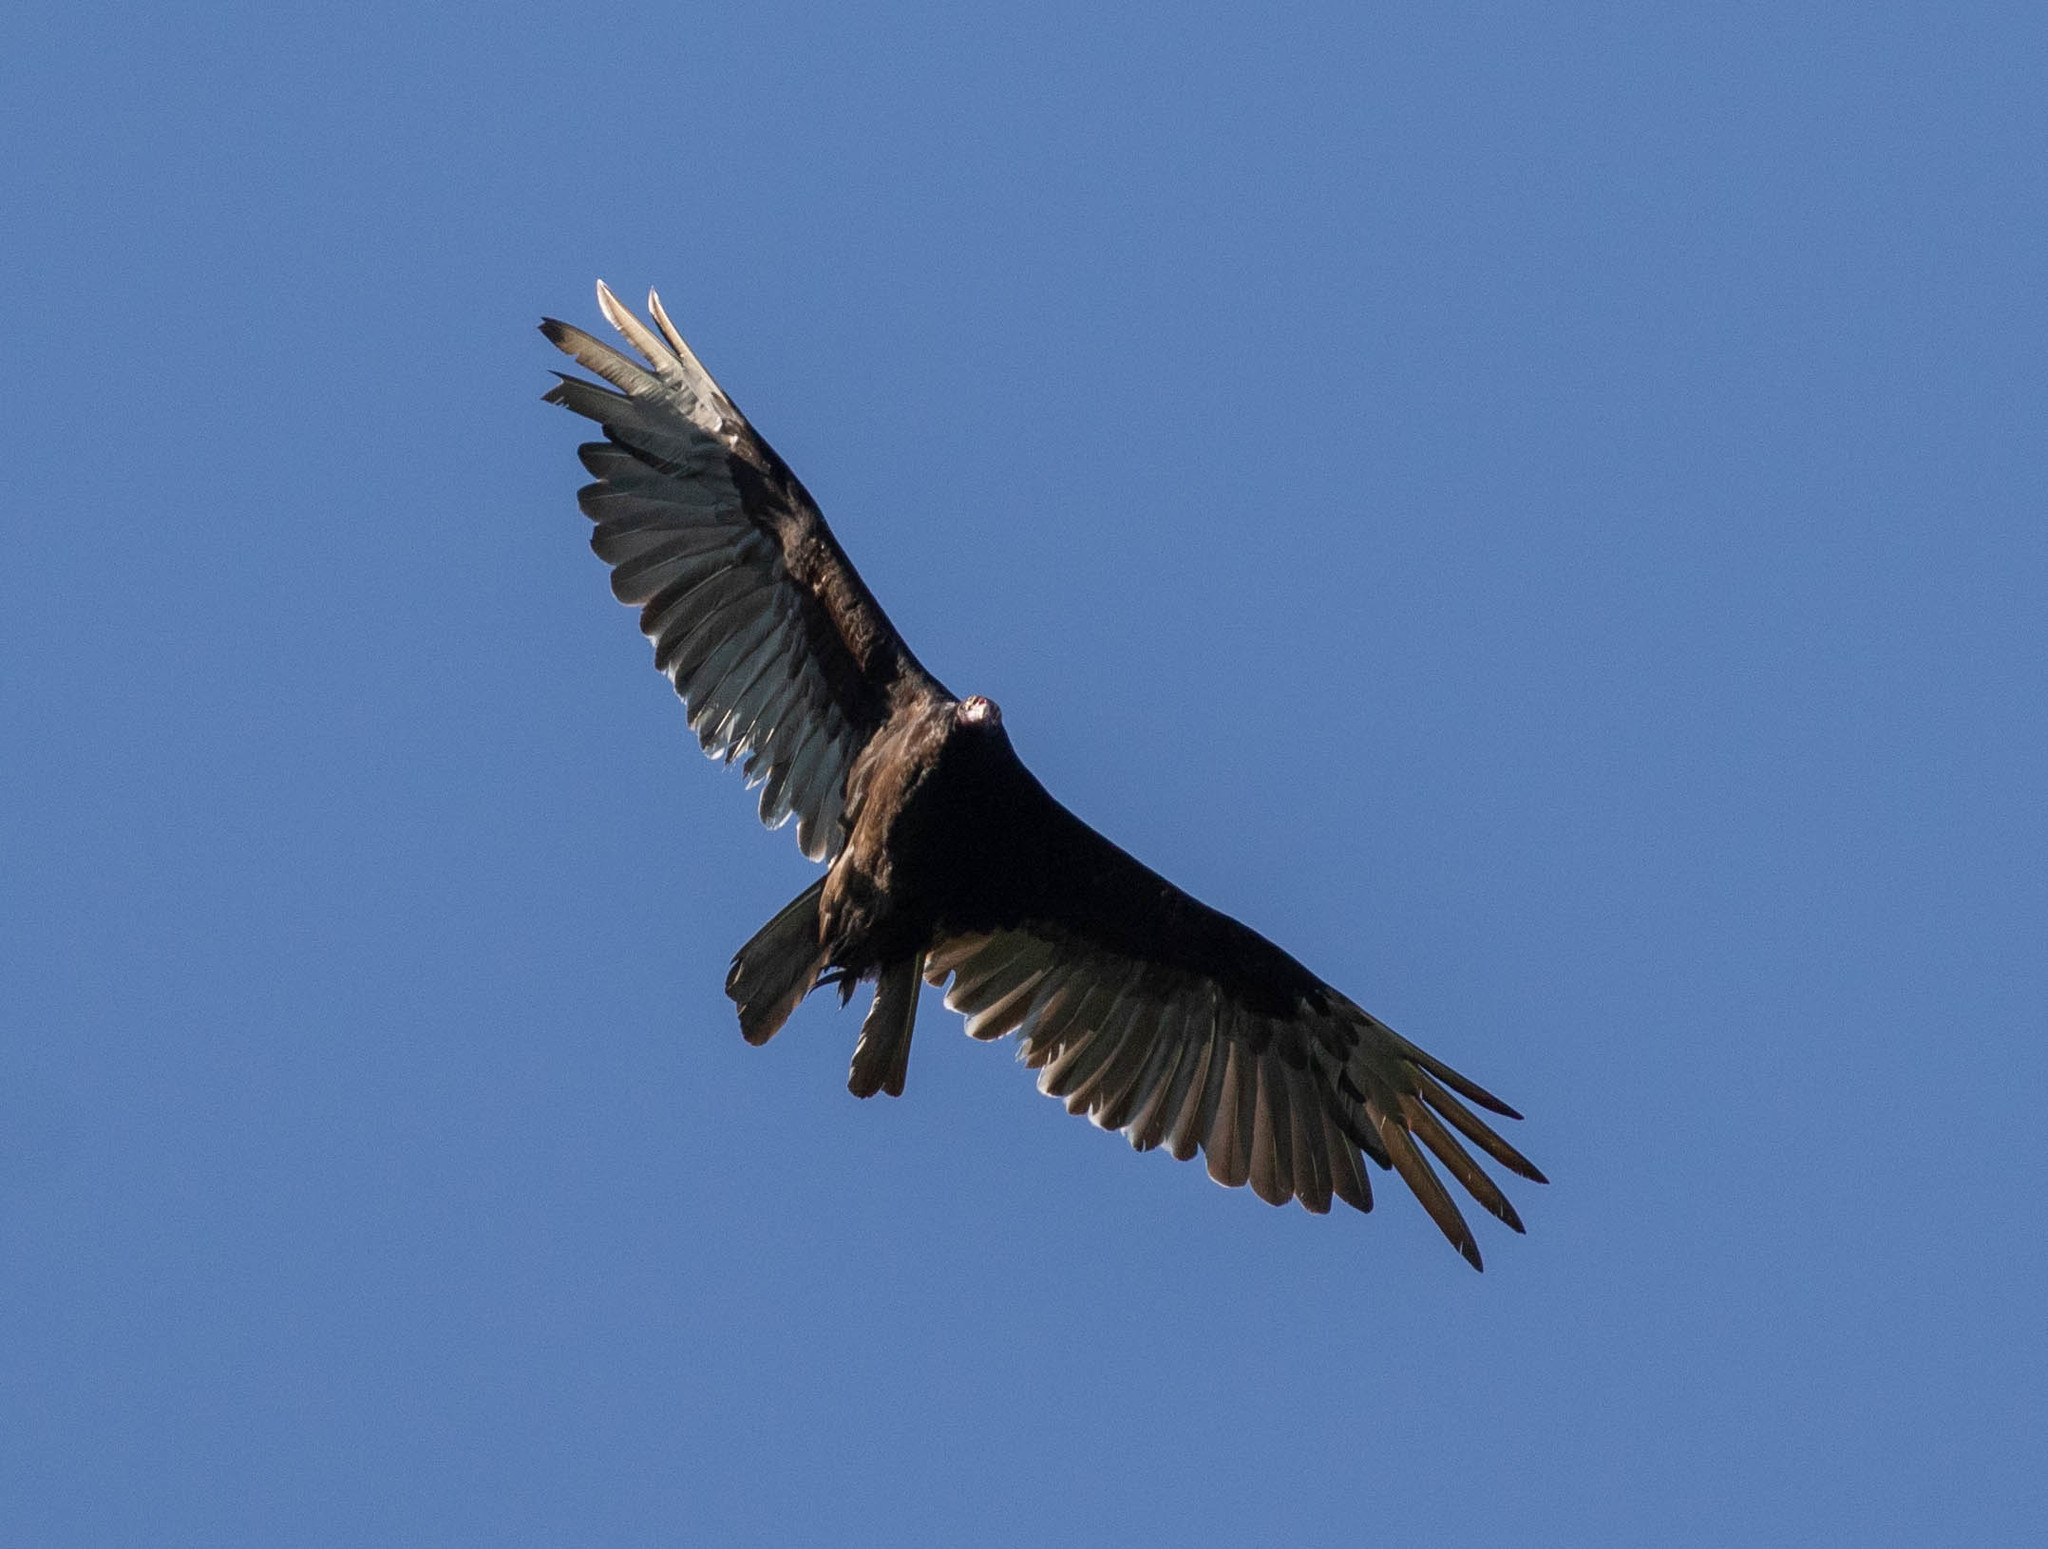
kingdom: Animalia
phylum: Chordata
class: Aves
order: Accipitriformes
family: Cathartidae
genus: Cathartes
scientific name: Cathartes aura
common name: Turkey vulture
